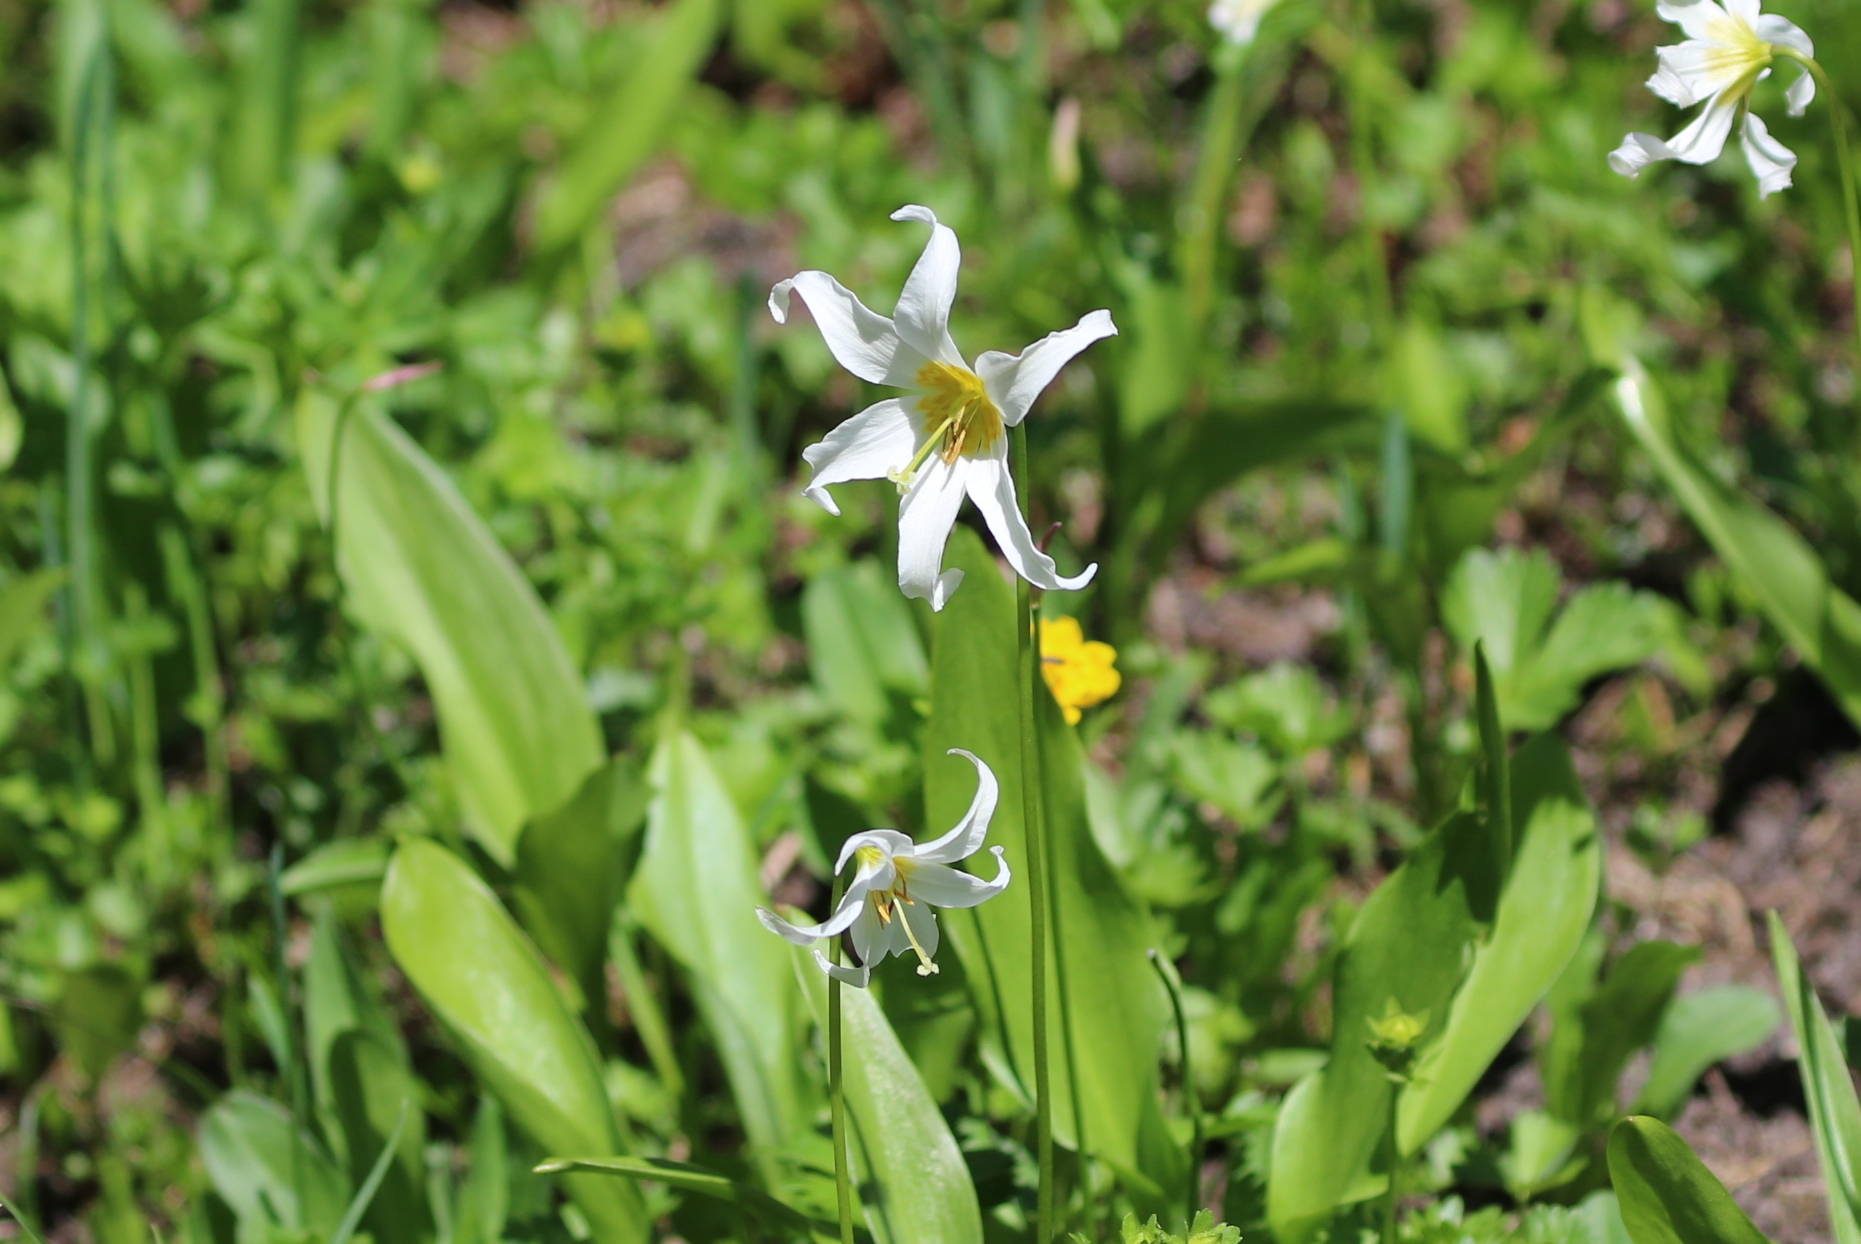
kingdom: Plantae
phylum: Tracheophyta
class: Liliopsida
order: Liliales
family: Liliaceae
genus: Erythronium
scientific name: Erythronium montanum
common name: Avalanche lily
